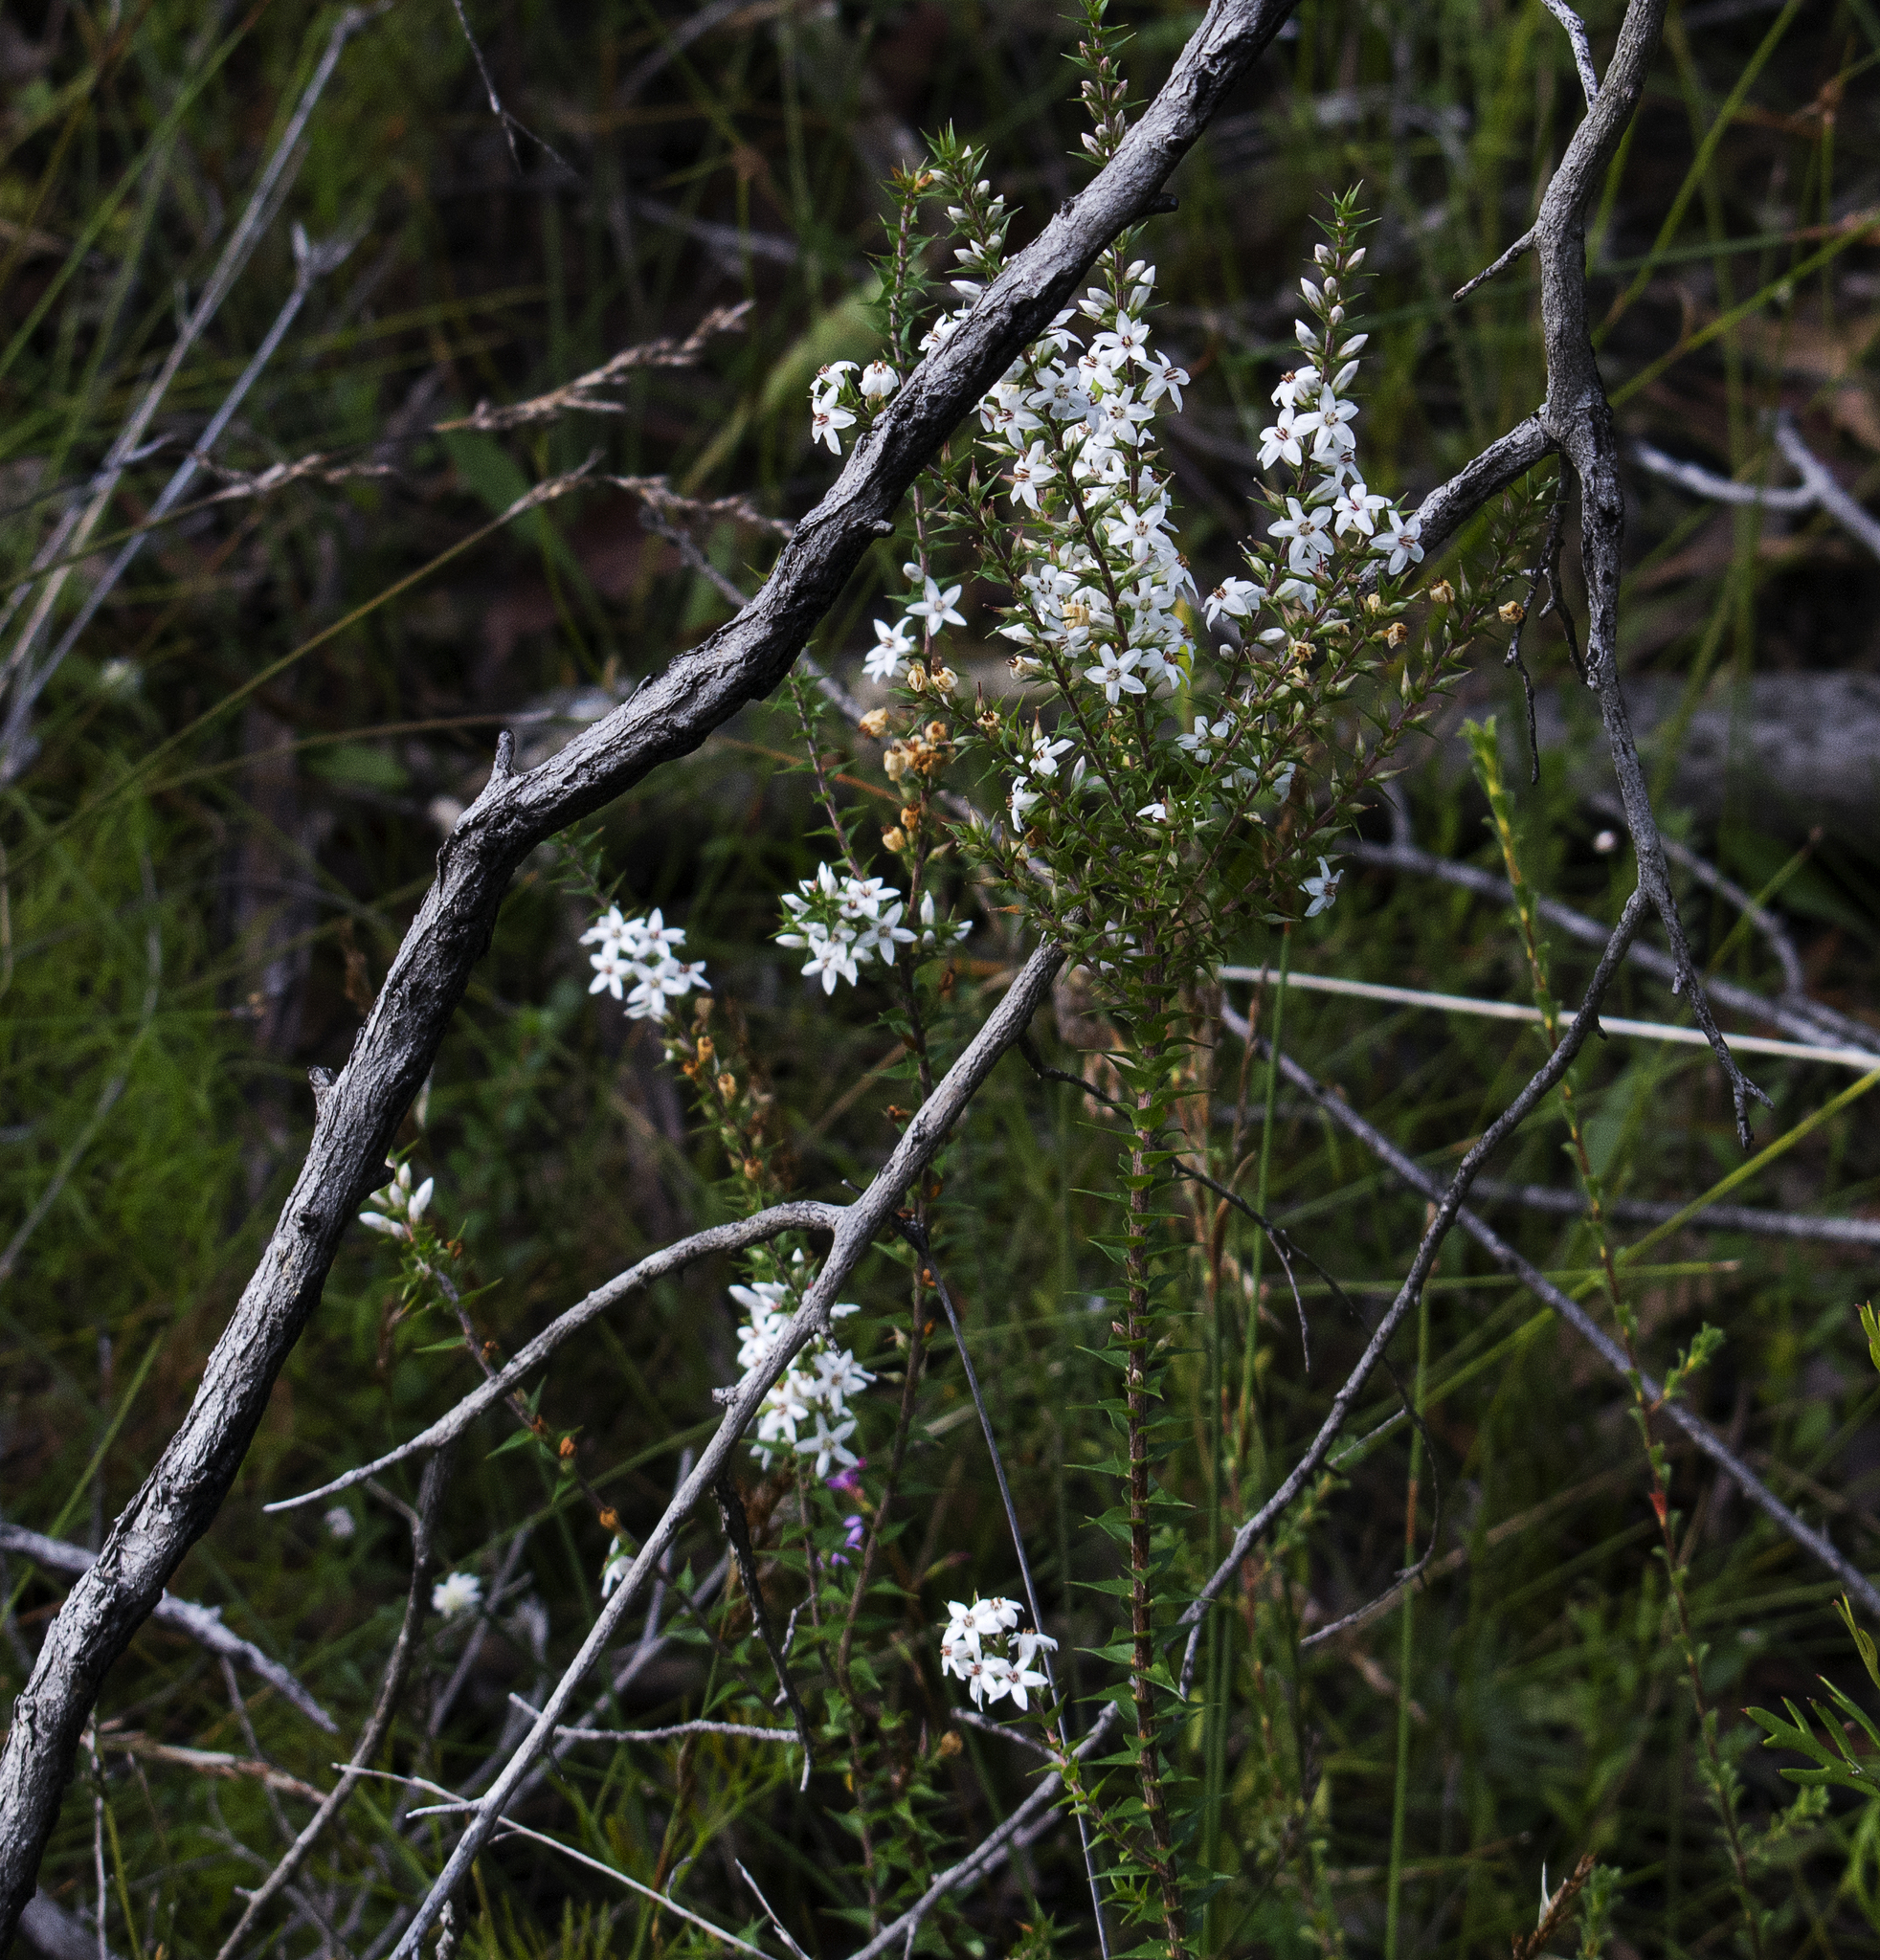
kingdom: Plantae
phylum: Tracheophyta
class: Magnoliopsida
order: Ericales
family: Ericaceae
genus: Epacris
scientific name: Epacris pulchella
